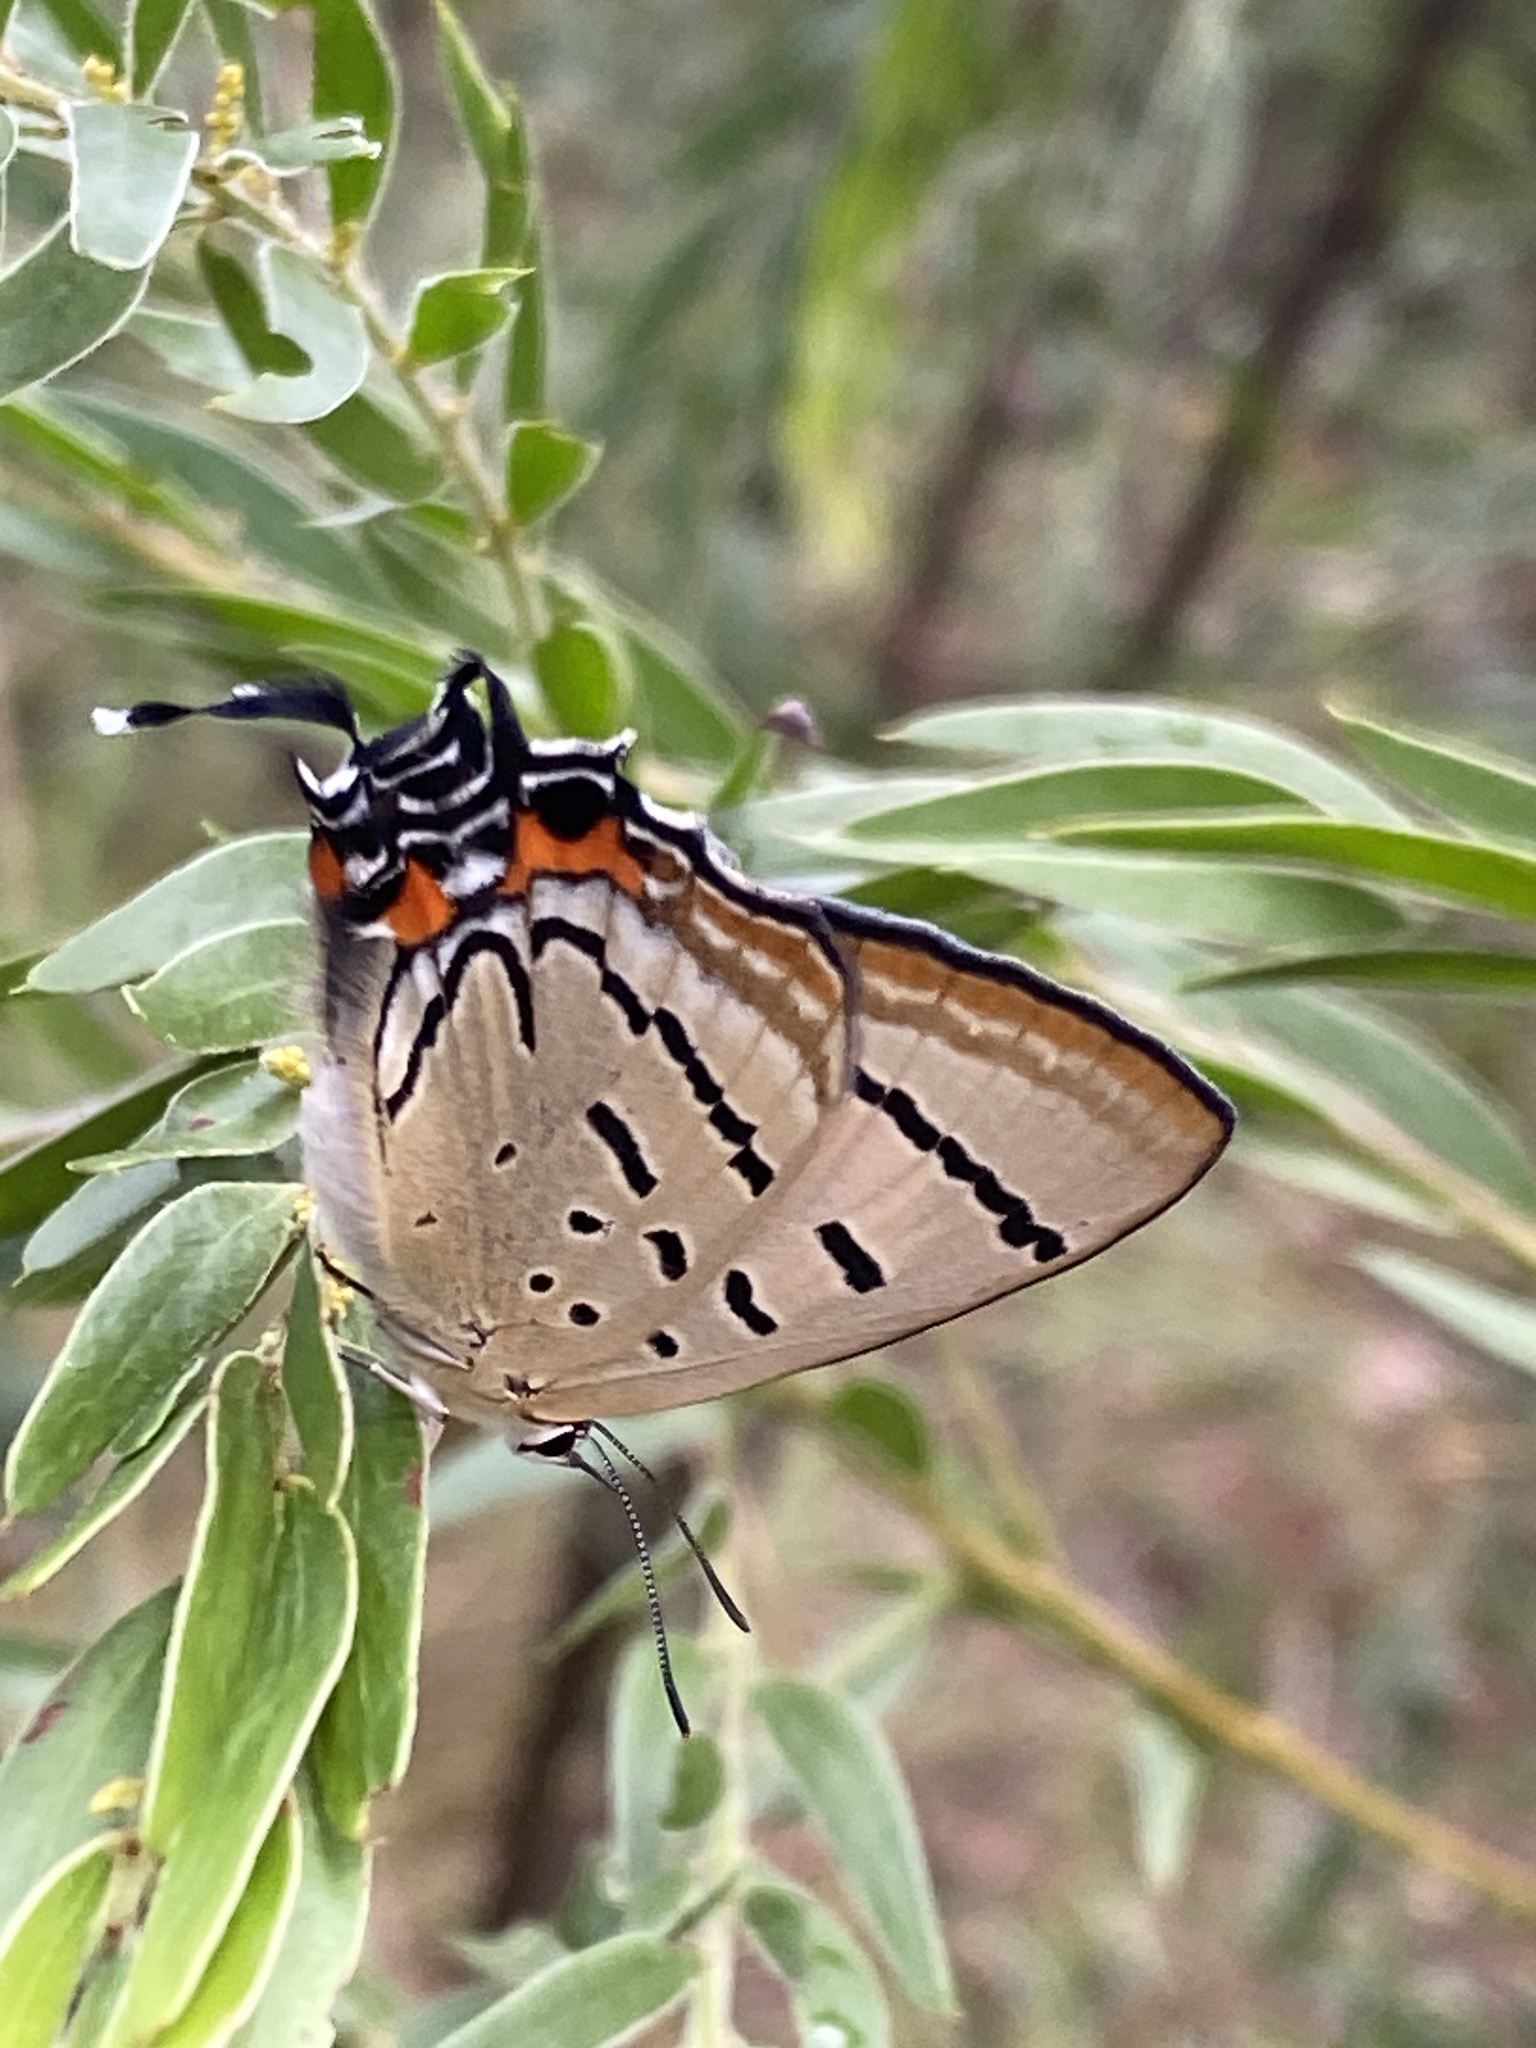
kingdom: Animalia
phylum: Arthropoda
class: Insecta
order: Lepidoptera
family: Lycaenidae
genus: Jalmenus
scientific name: Jalmenus evagoras
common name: Common imperial blue
